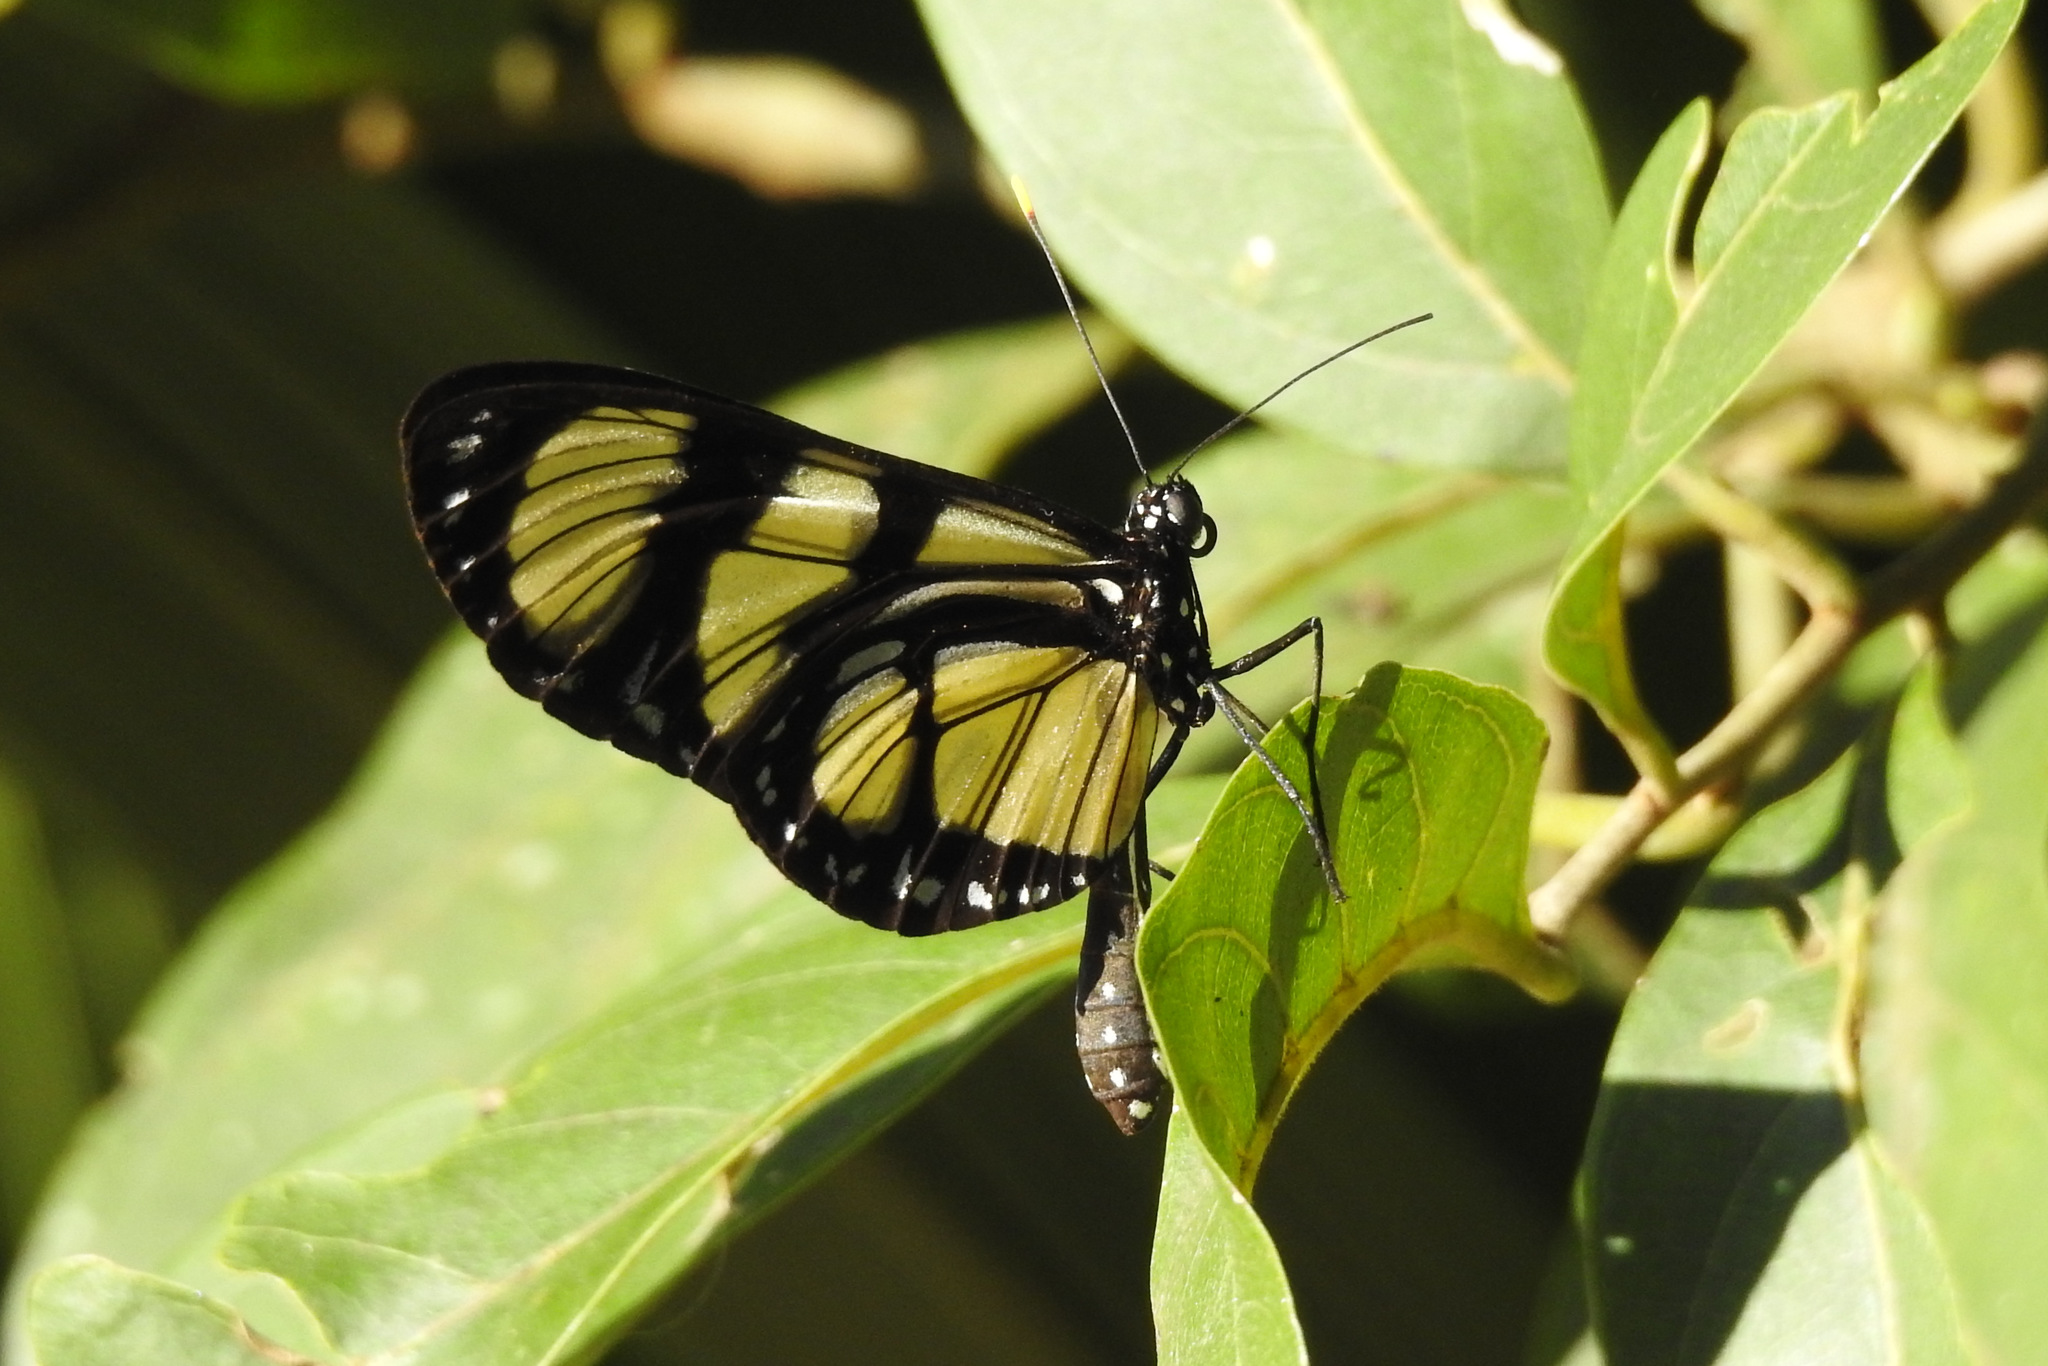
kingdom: Animalia
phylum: Arthropoda
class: Insecta
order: Lepidoptera
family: Nymphalidae
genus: Methona
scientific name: Methona themisto
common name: Themisto amberwing
